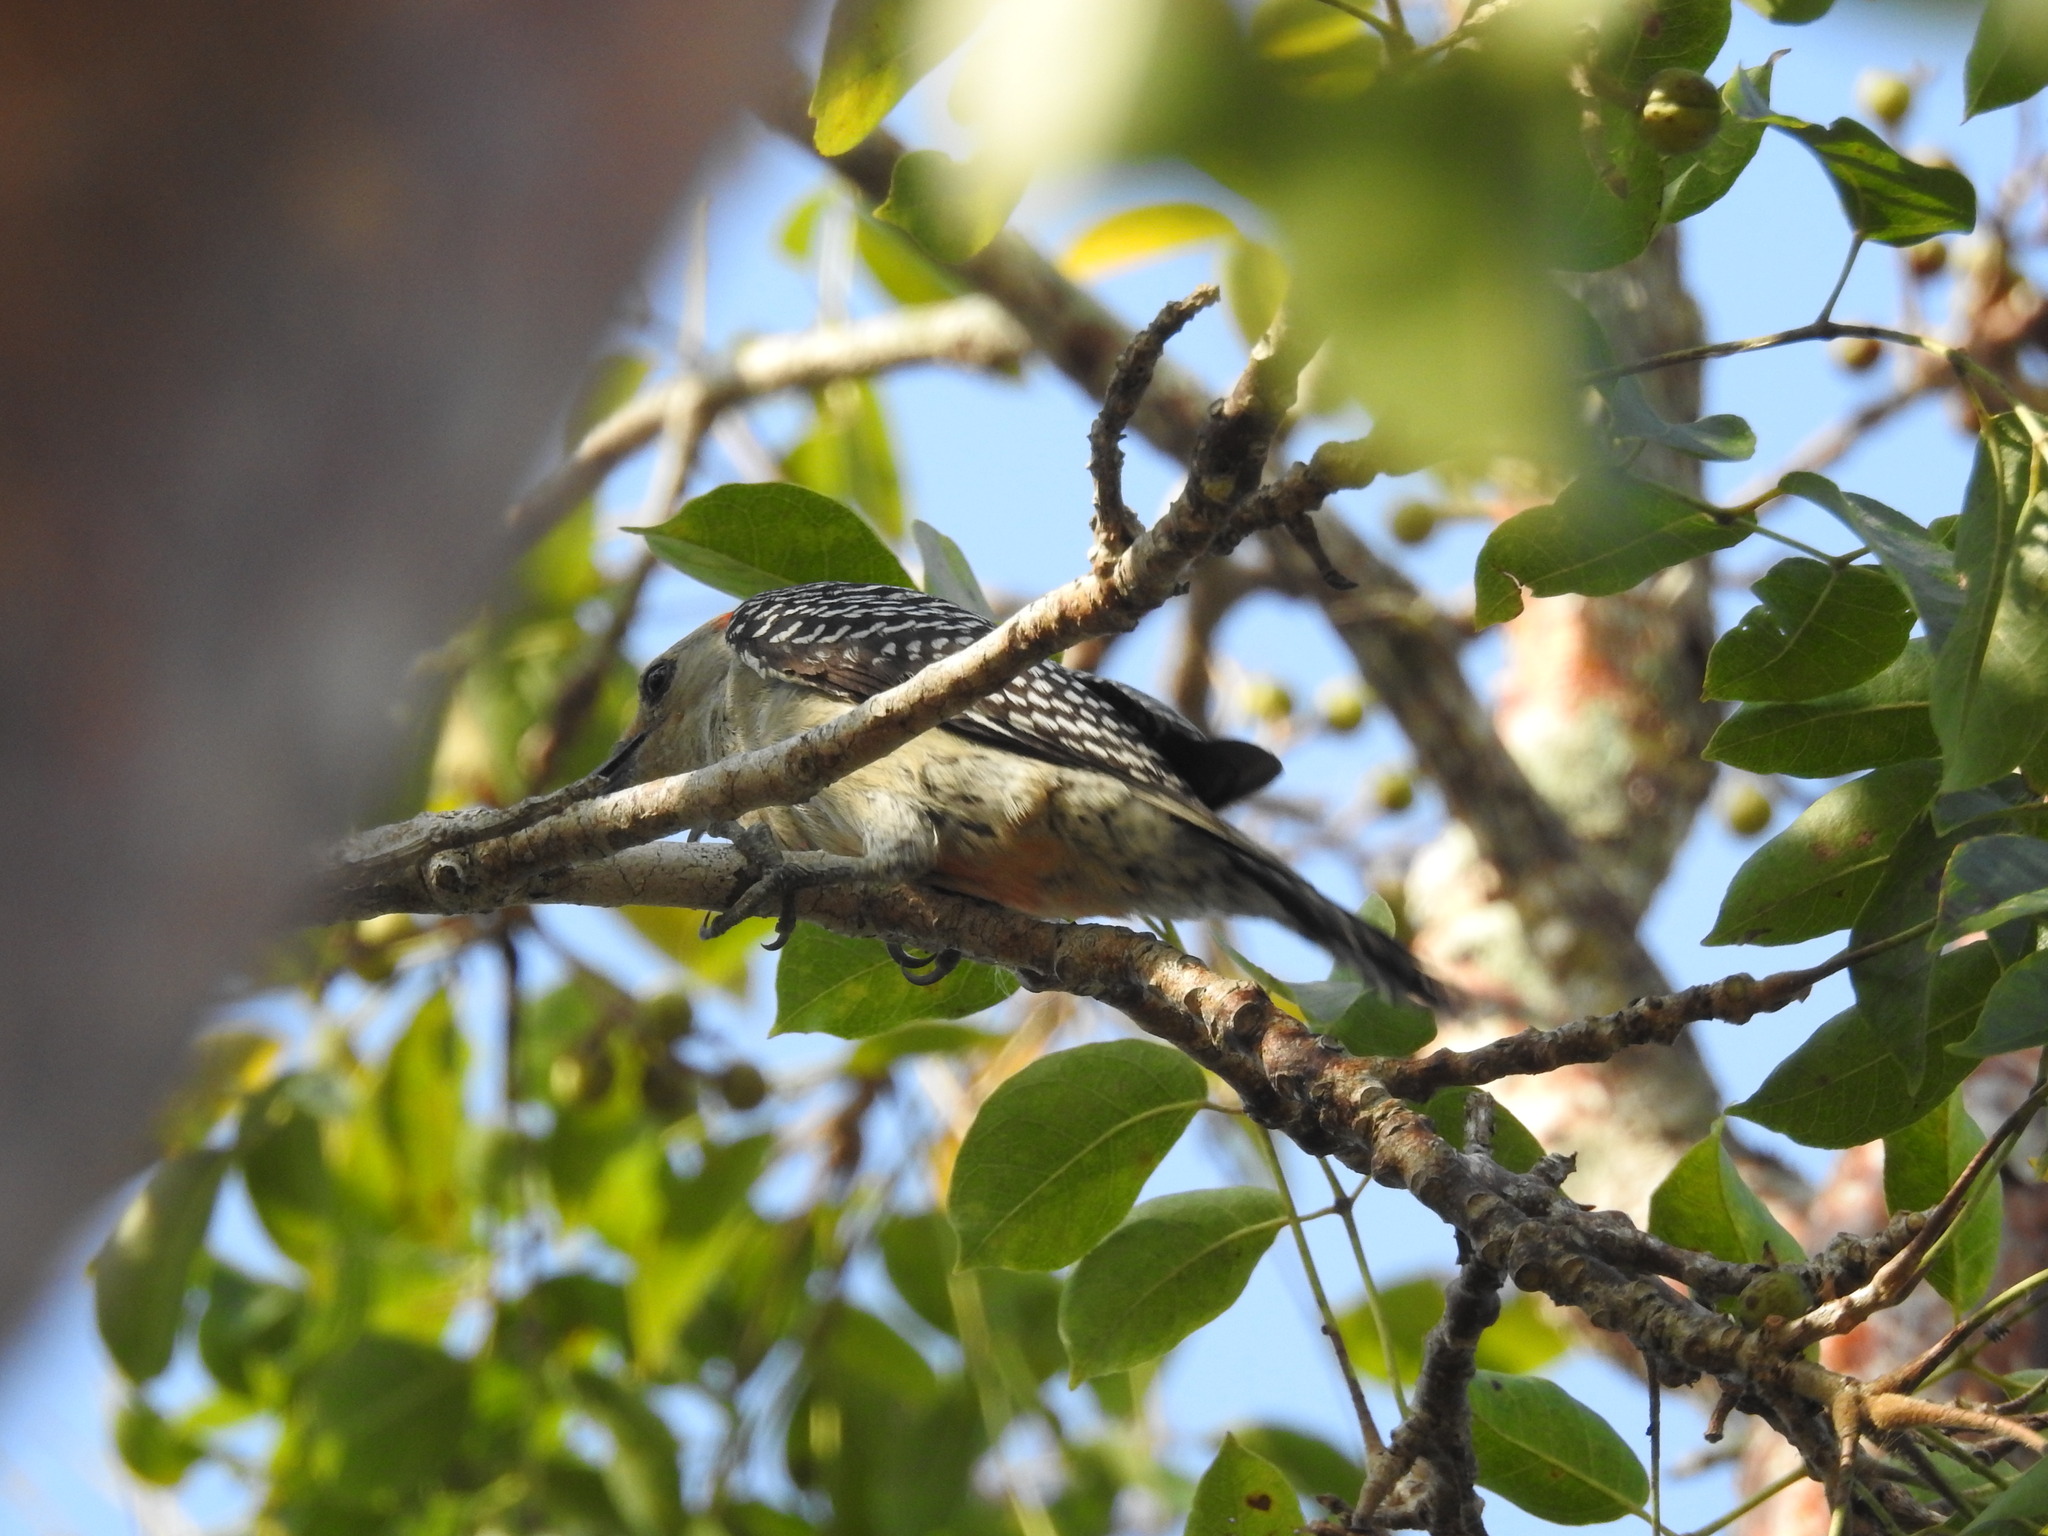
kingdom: Animalia
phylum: Chordata
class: Aves
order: Piciformes
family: Picidae
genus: Melanerpes
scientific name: Melanerpes carolinus
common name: Red-bellied woodpecker
